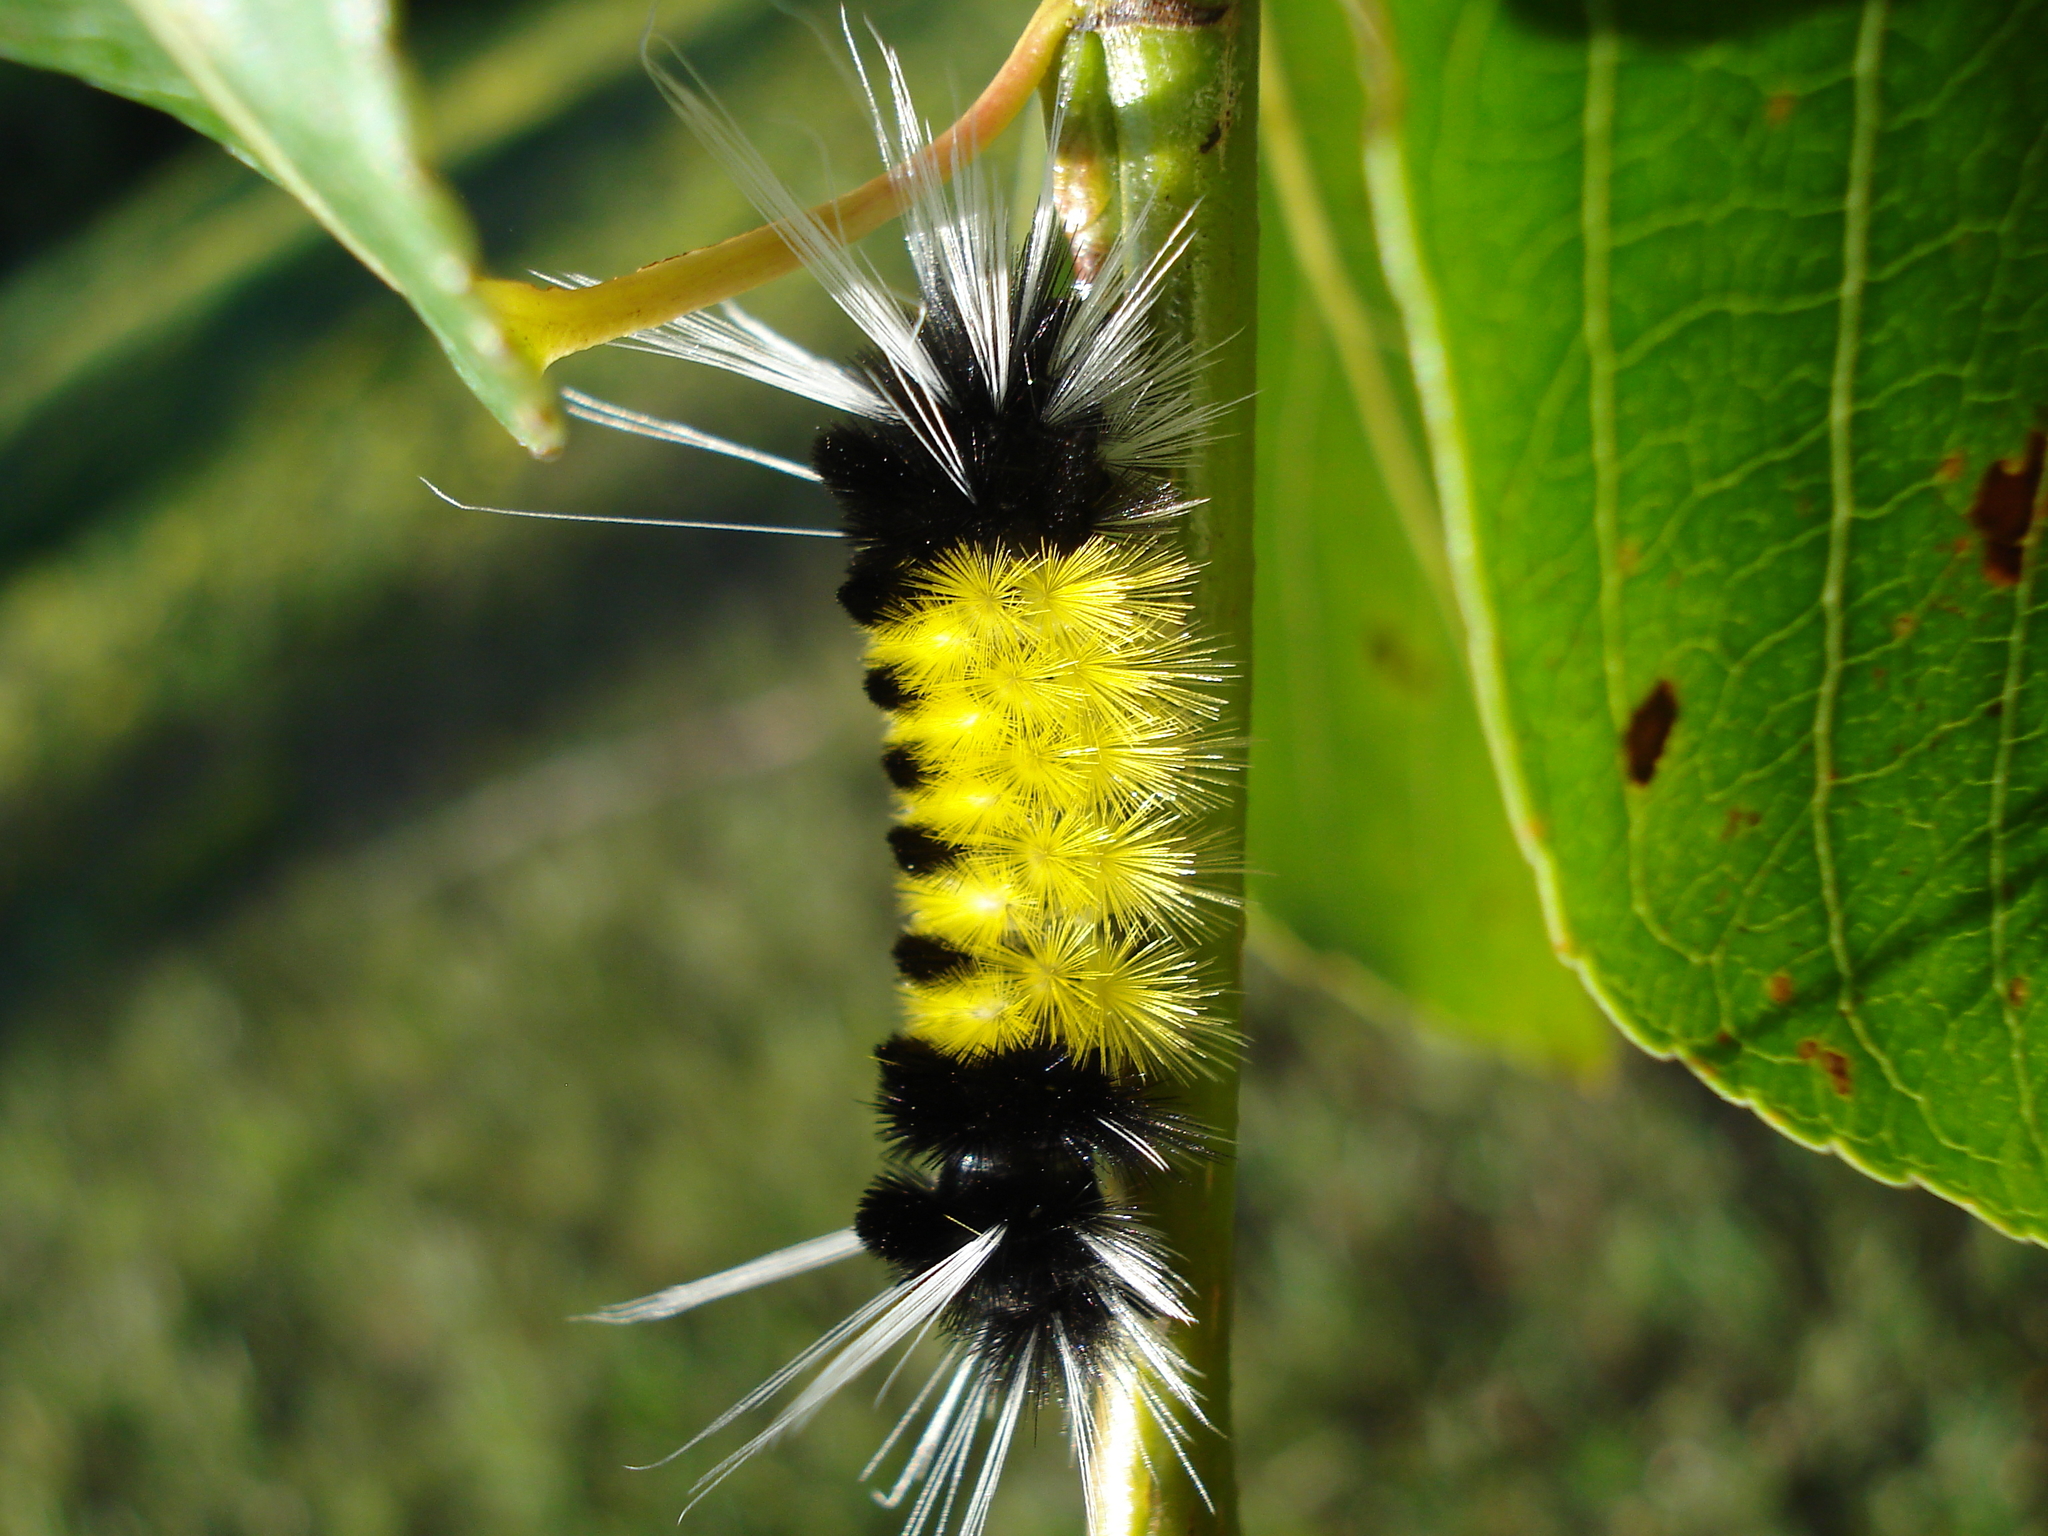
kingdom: Animalia
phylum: Arthropoda
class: Insecta
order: Lepidoptera
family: Erebidae
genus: Lophocampa
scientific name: Lophocampa maculata
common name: Spotted tussock moth
